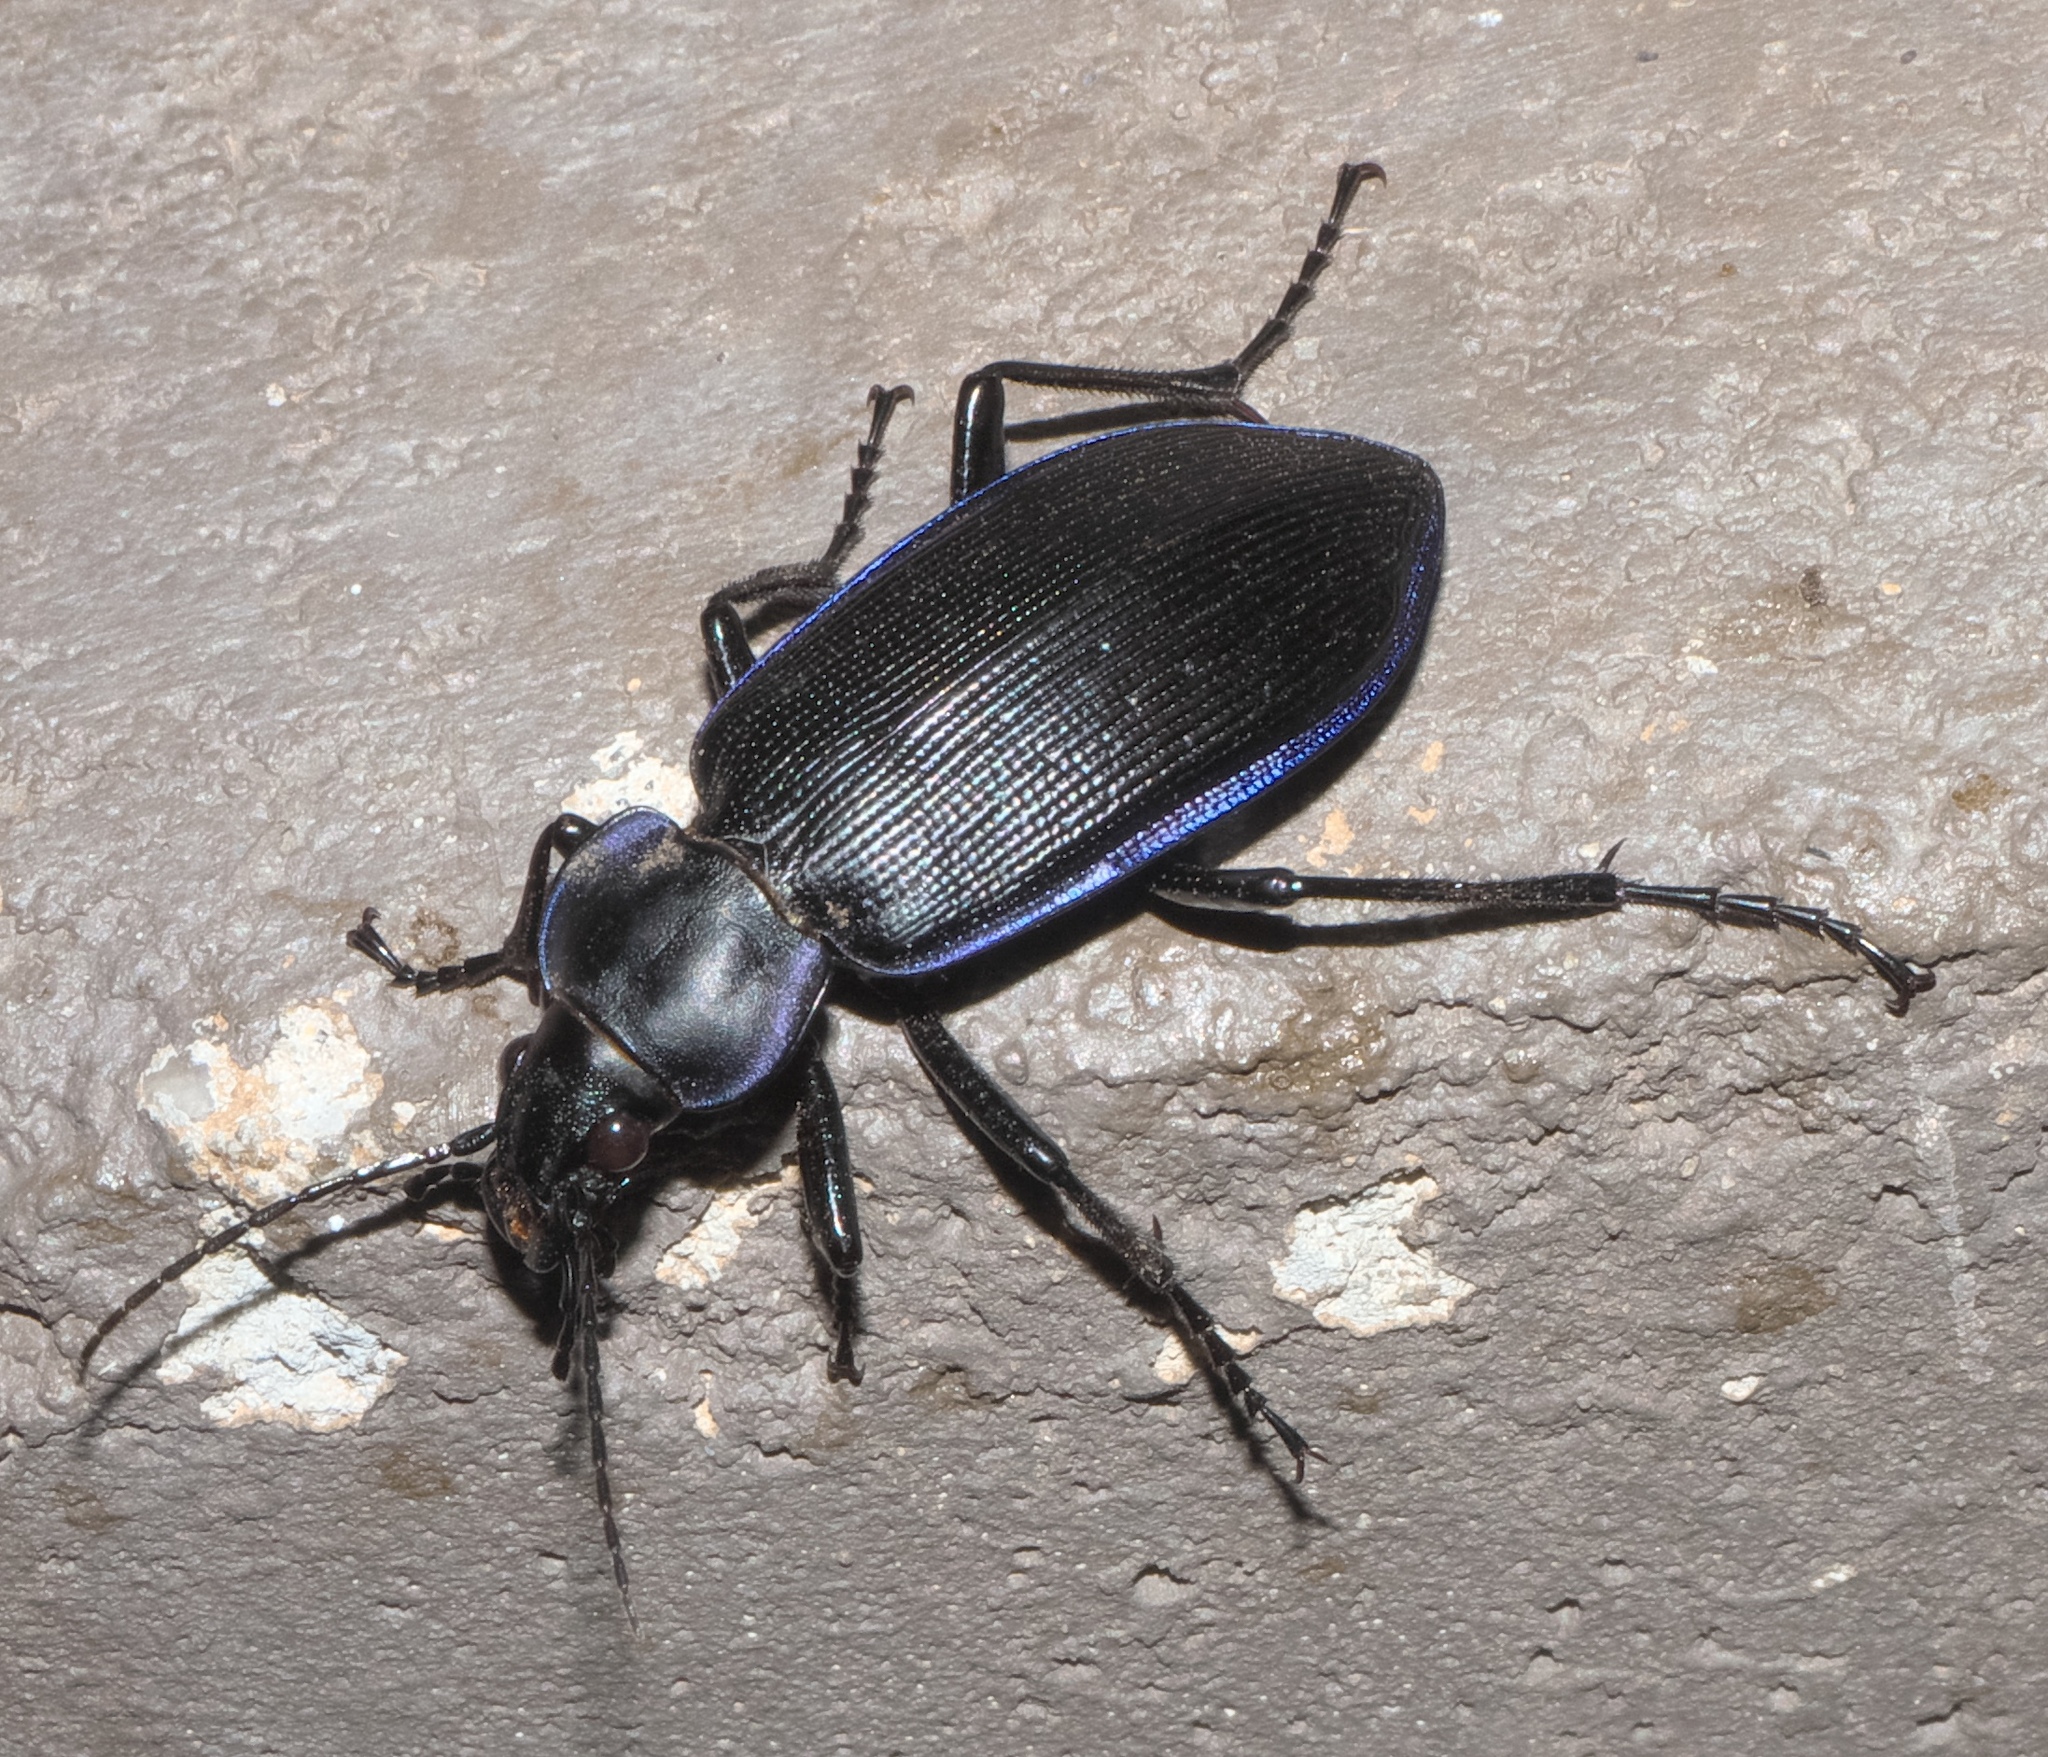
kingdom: Animalia
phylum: Arthropoda
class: Insecta
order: Coleoptera
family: Carabidae
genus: Calosoma
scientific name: Calosoma externum
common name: Narrow searcher beetle
